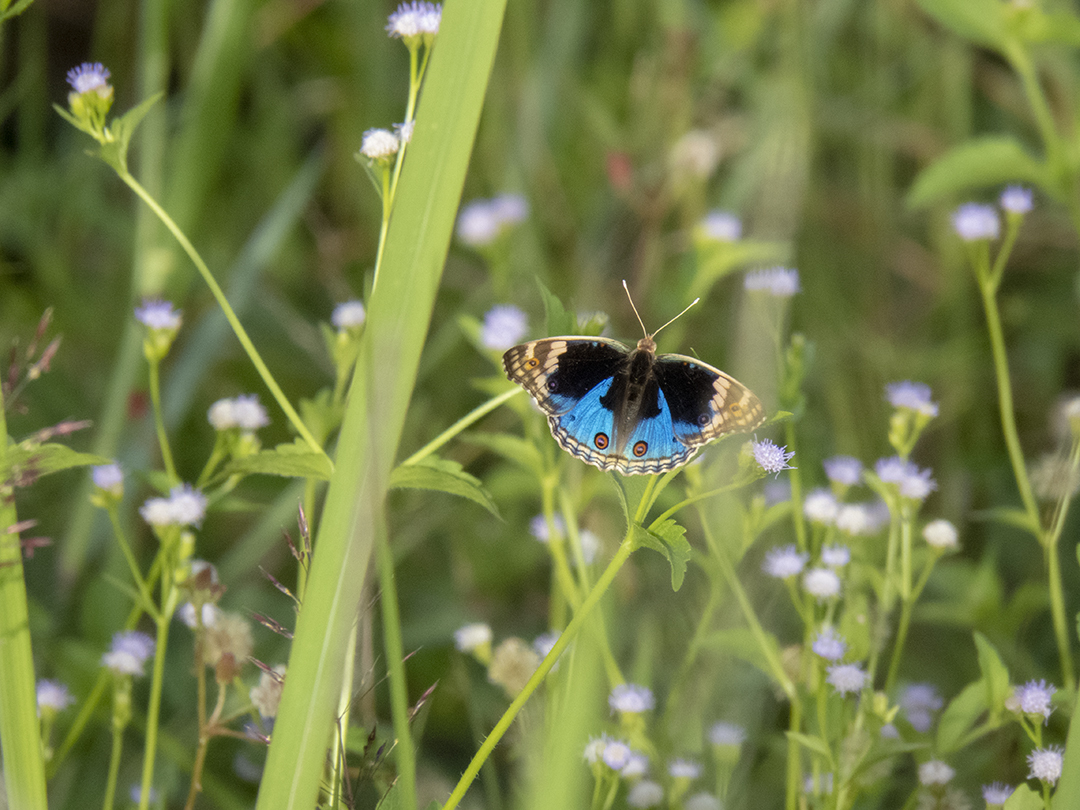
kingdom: Animalia
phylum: Arthropoda
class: Insecta
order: Lepidoptera
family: Nymphalidae
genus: Junonia
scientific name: Junonia orithya
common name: Blue pansy
